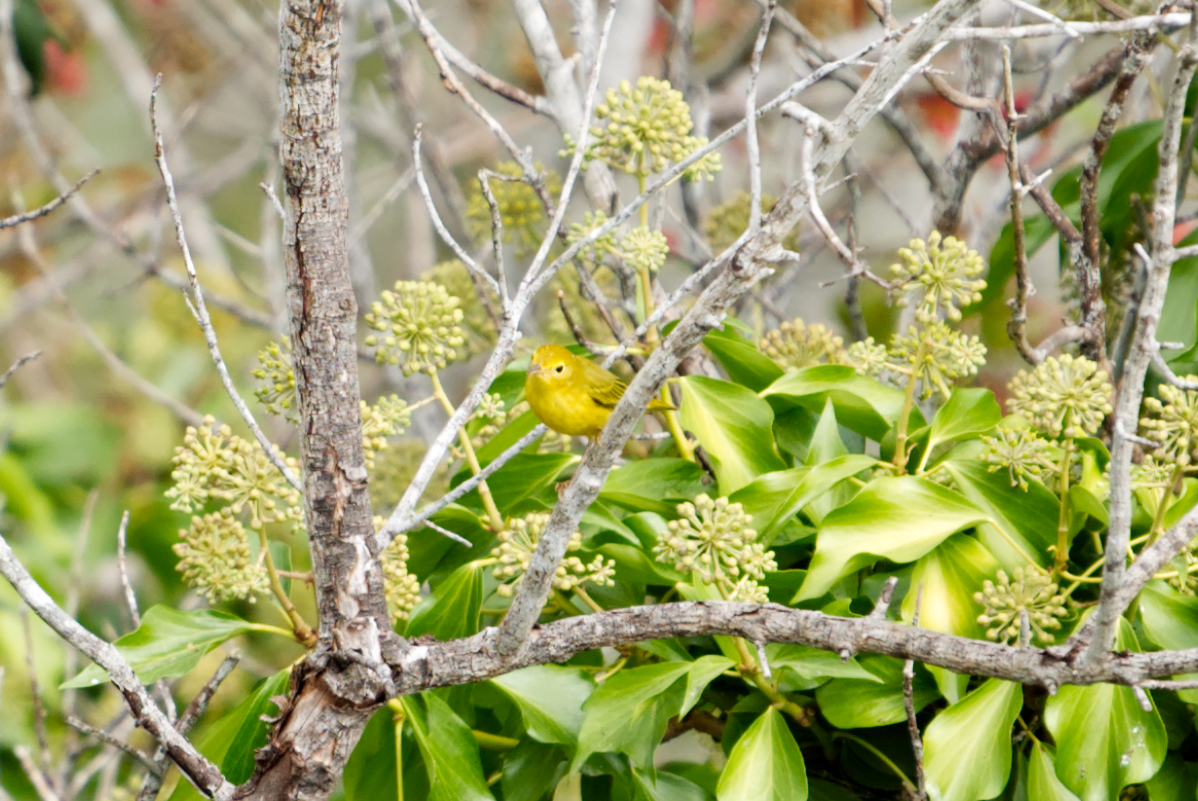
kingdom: Animalia
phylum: Chordata
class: Aves
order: Passeriformes
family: Parulidae
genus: Setophaga
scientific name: Setophaga petechia
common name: Yellow warbler
